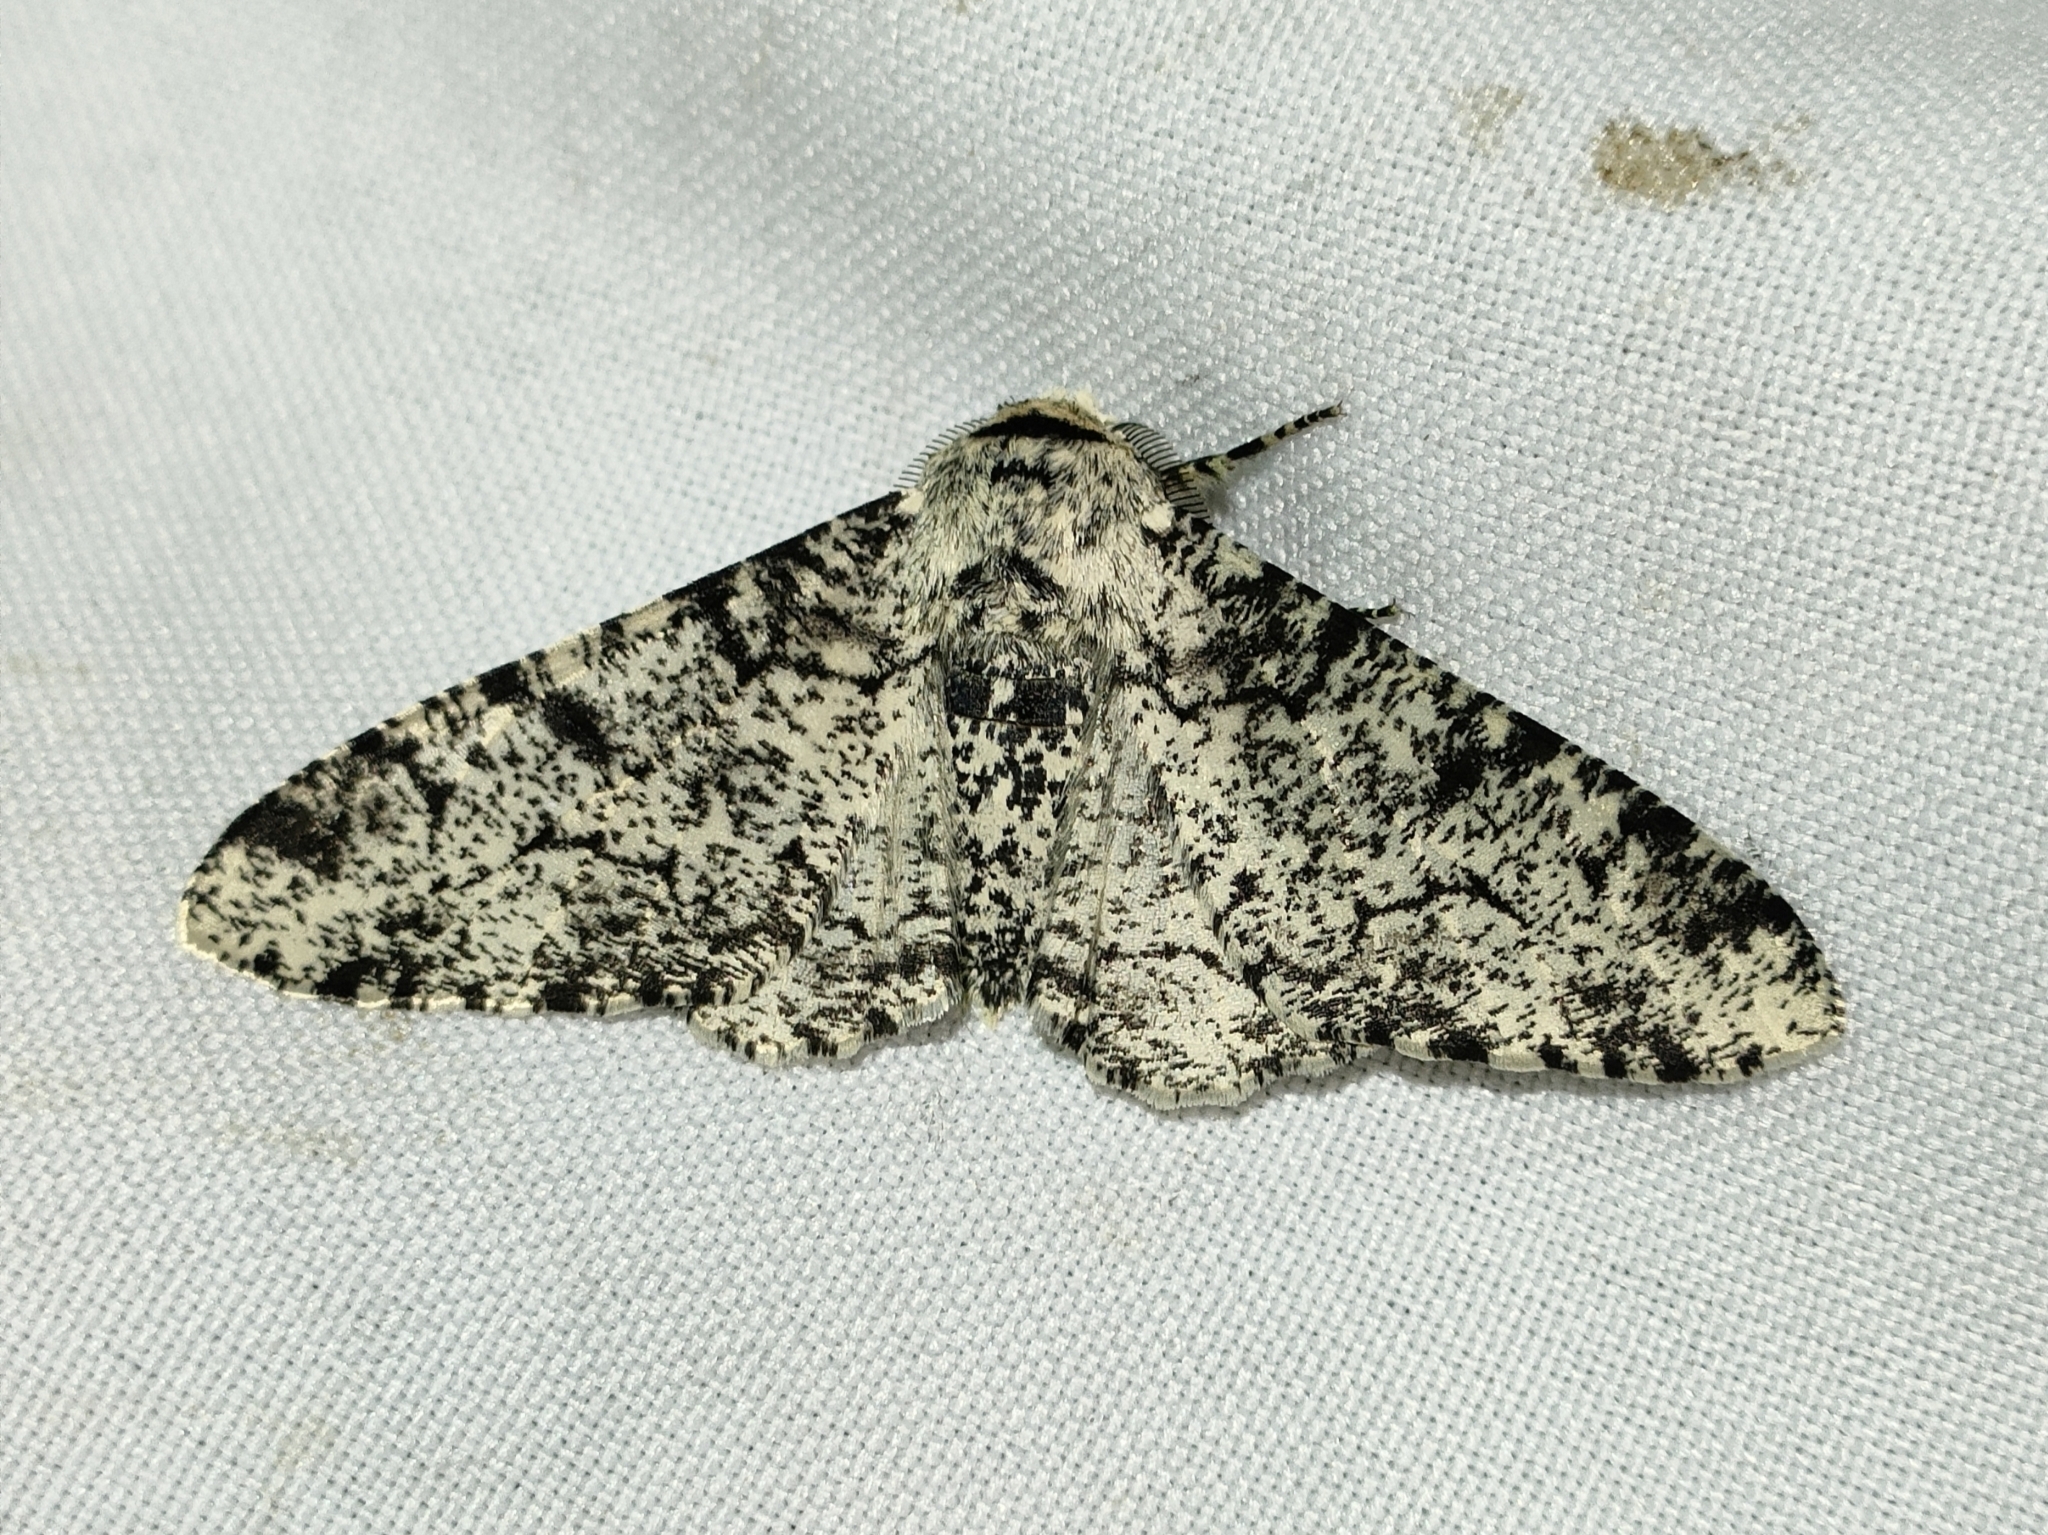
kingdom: Animalia
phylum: Arthropoda
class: Insecta
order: Lepidoptera
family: Geometridae
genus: Biston
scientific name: Biston betularia
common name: Peppered moth
